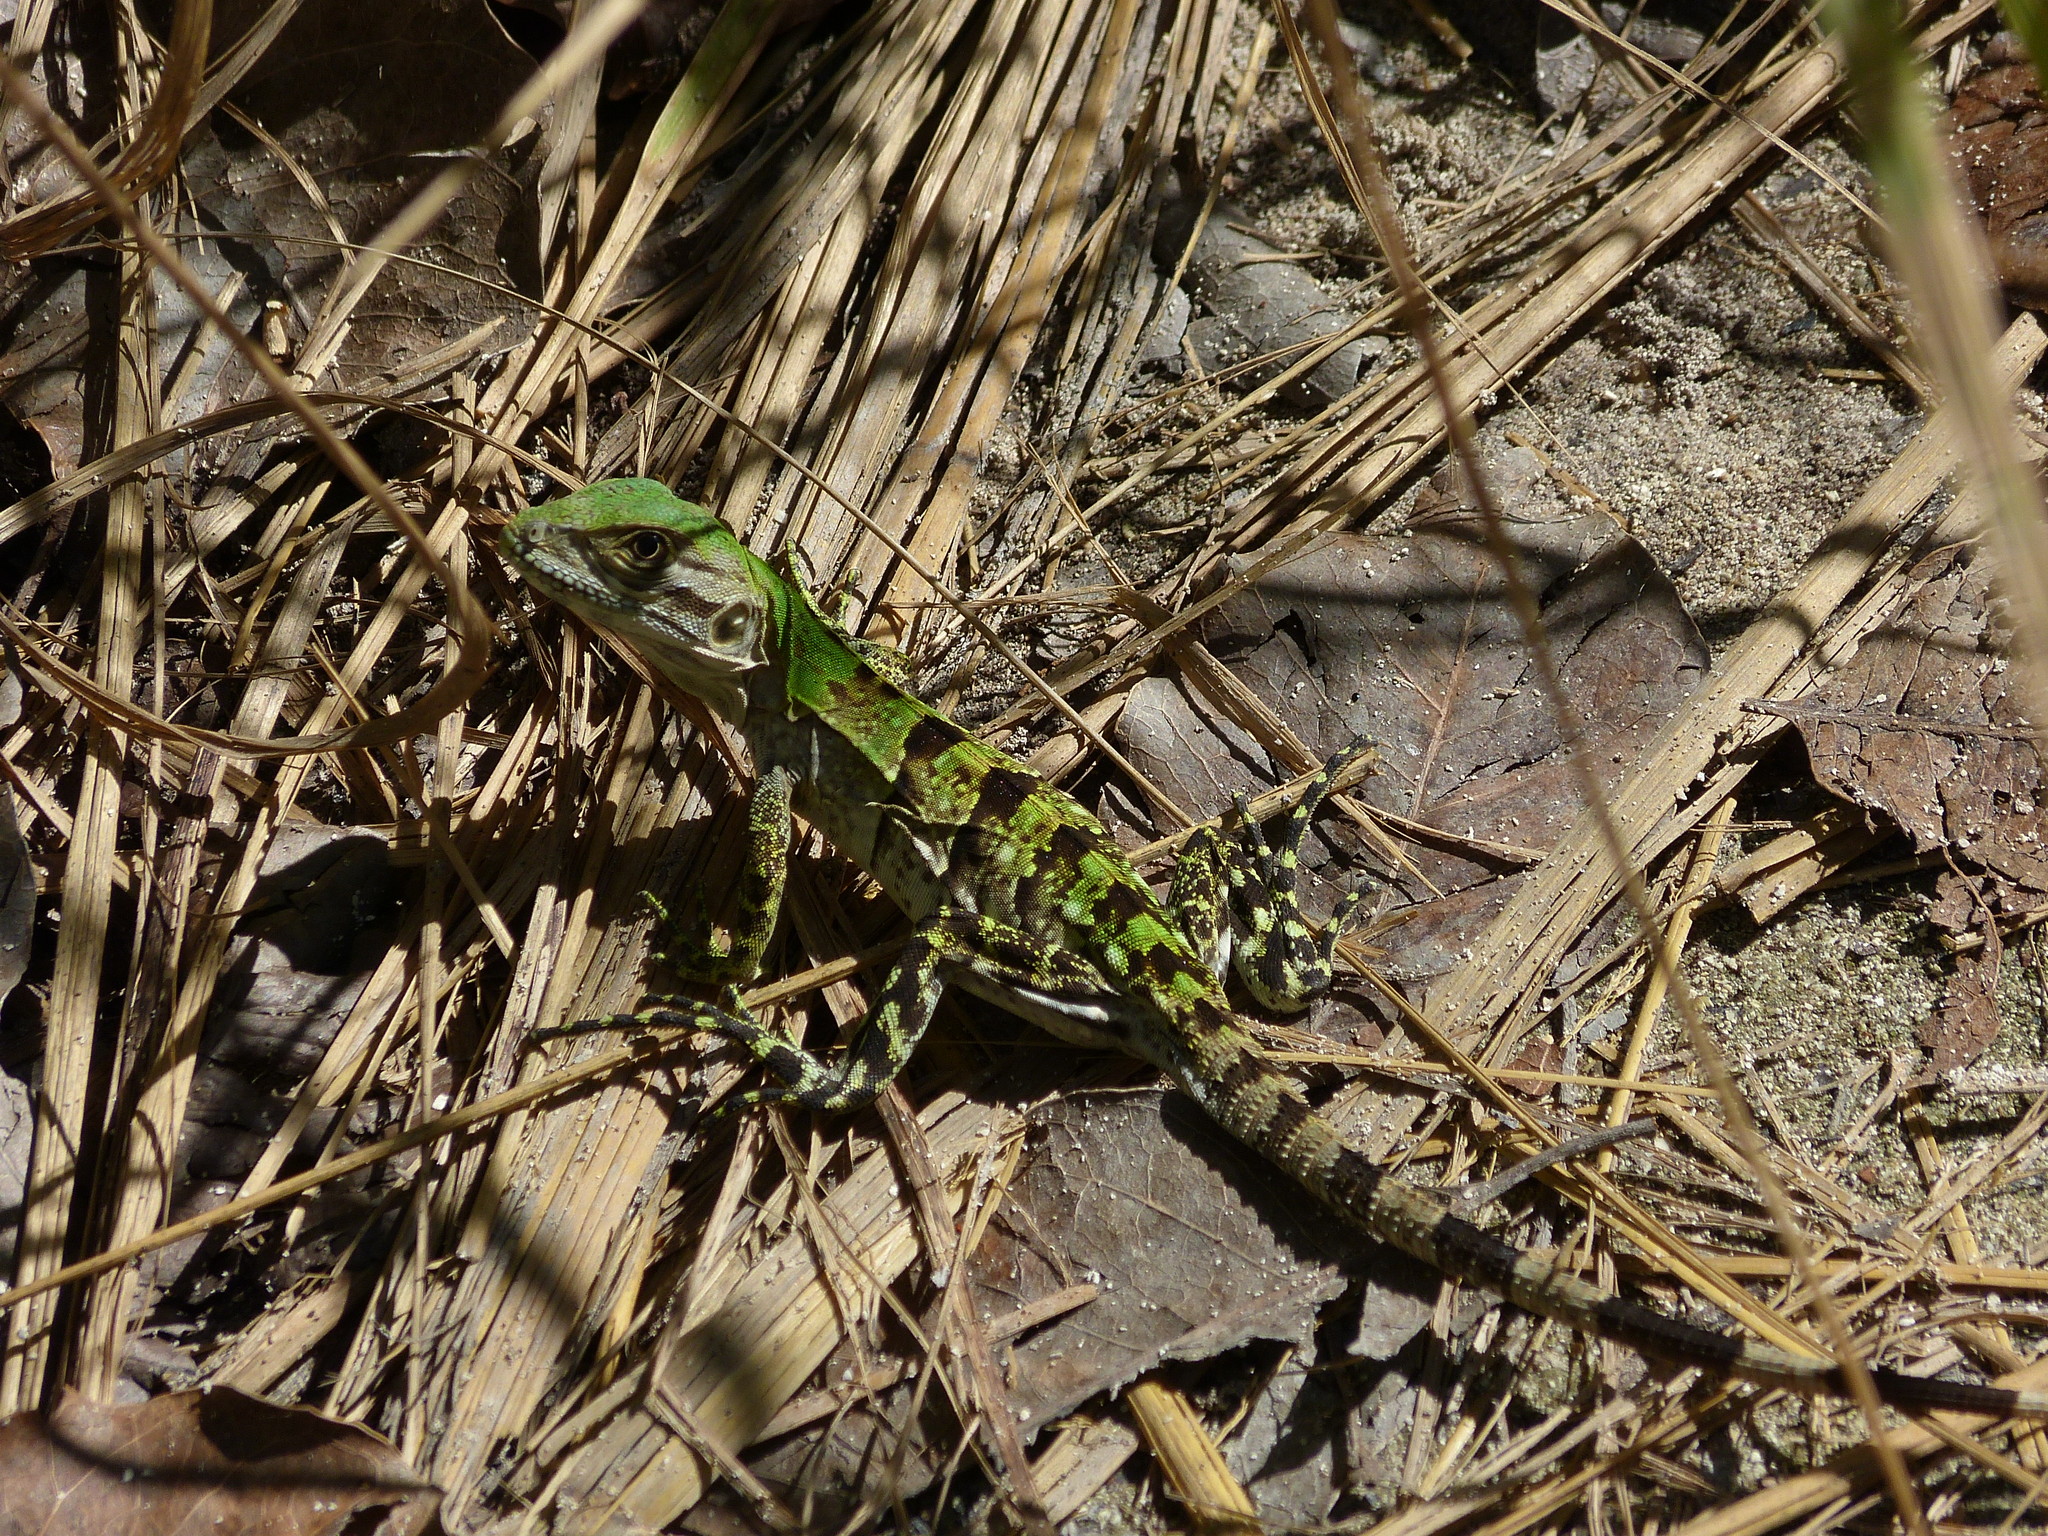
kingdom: Animalia
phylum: Chordata
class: Squamata
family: Iguanidae
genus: Ctenosaura
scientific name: Ctenosaura similis
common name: Black spiny-tailed iguana
